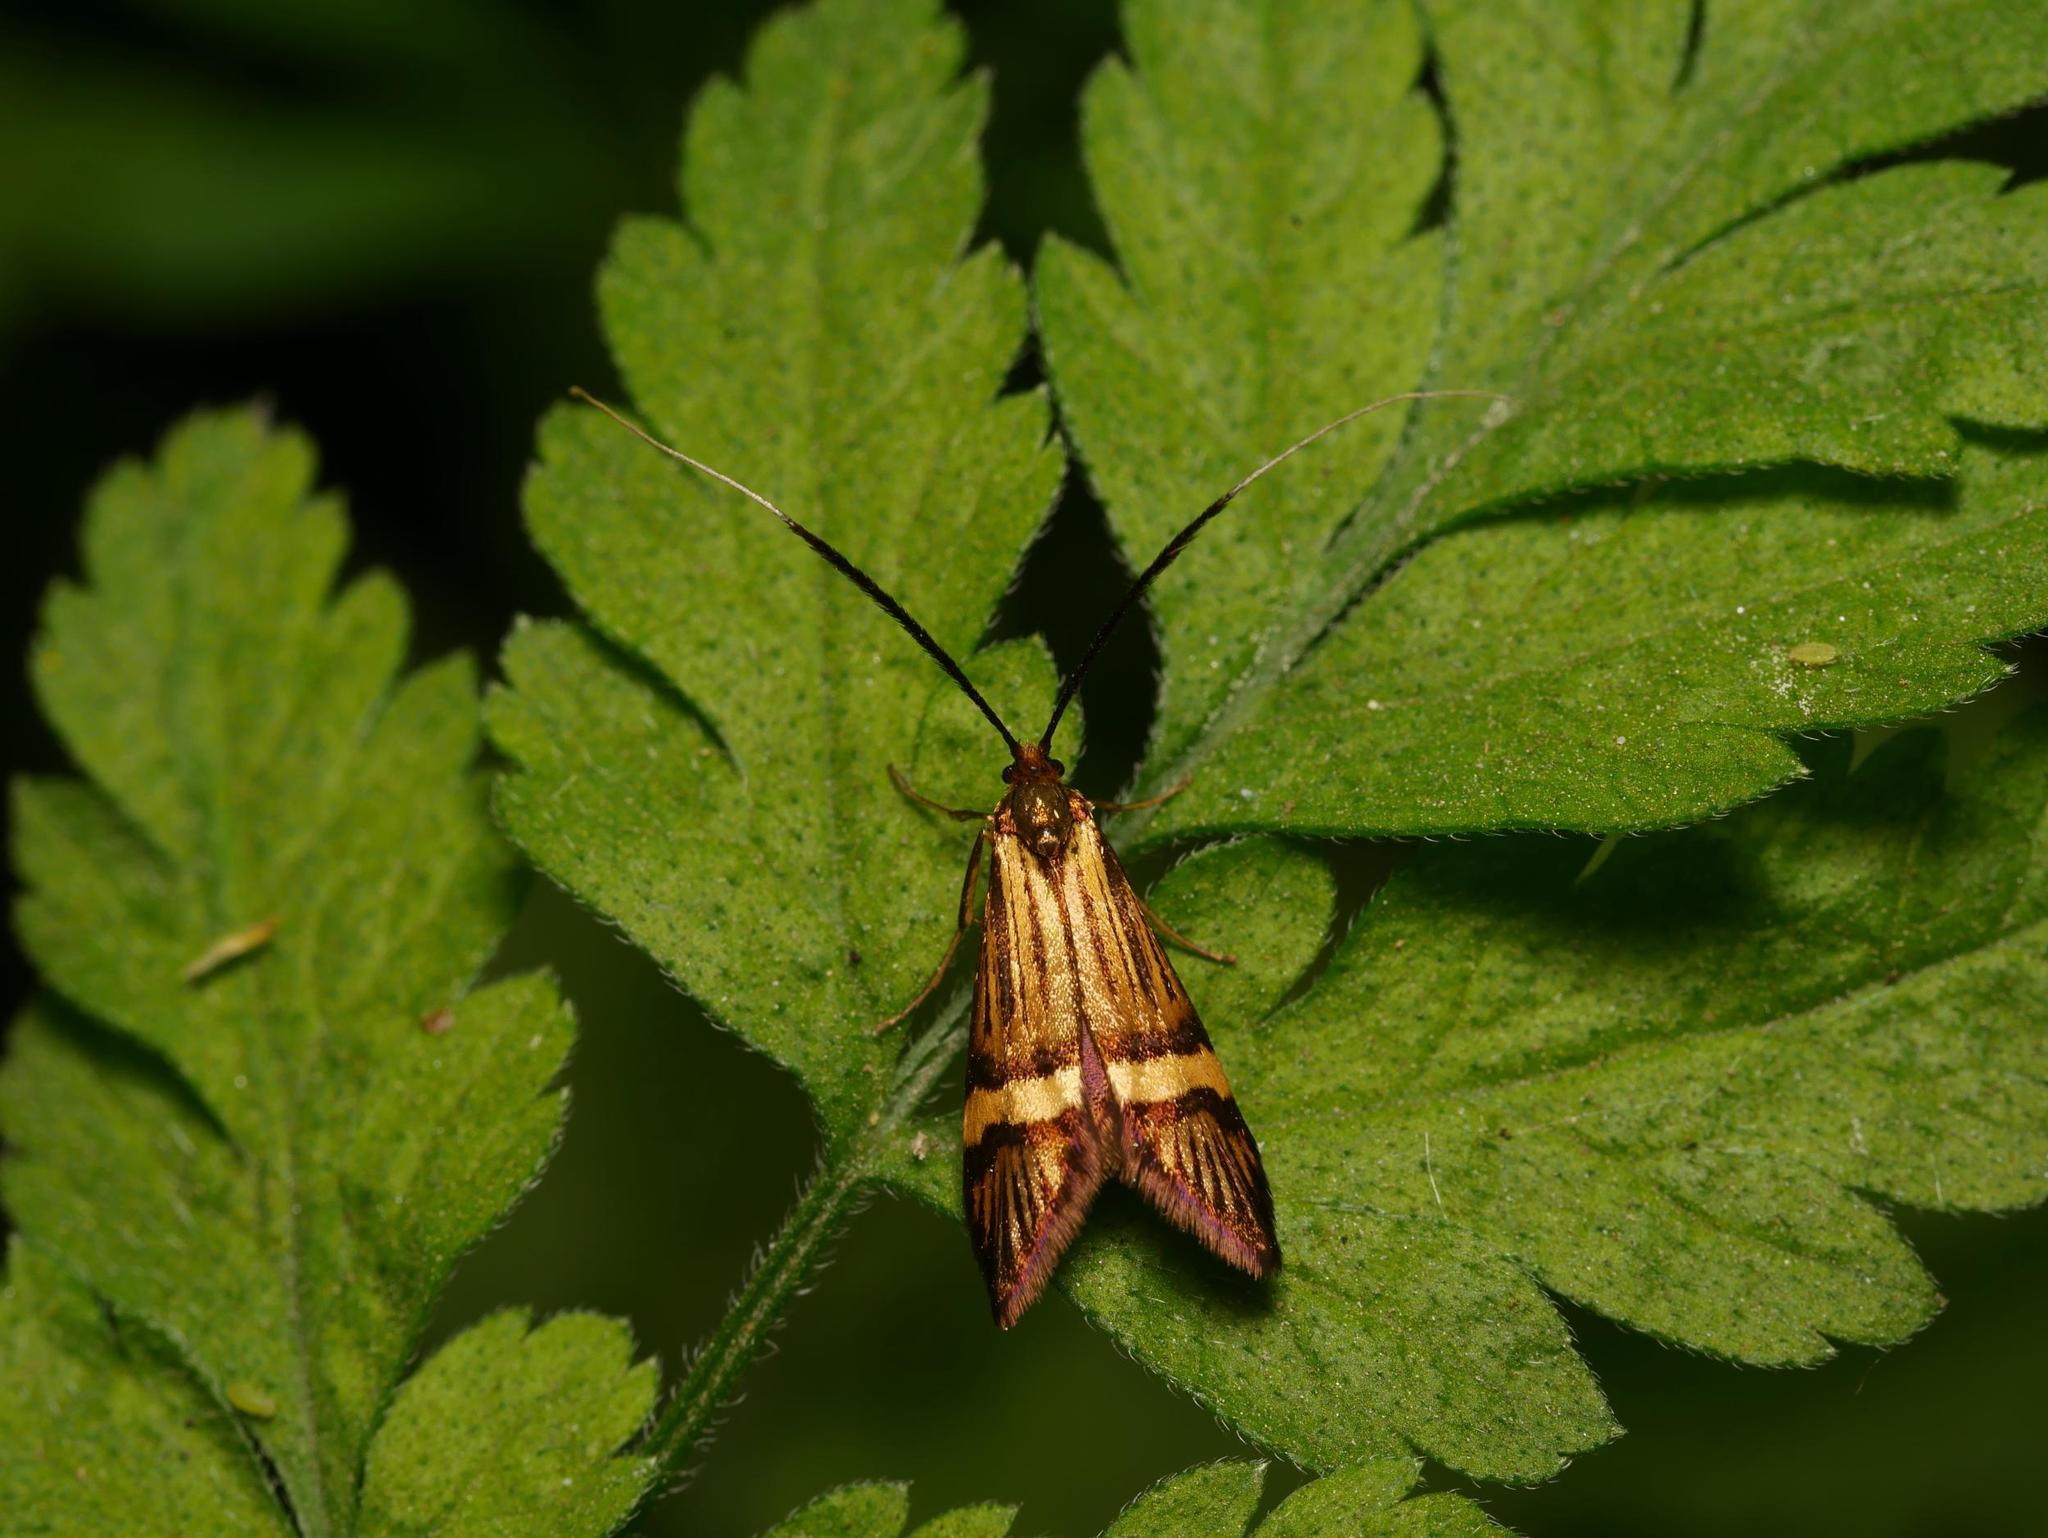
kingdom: Animalia
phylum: Arthropoda
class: Insecta
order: Lepidoptera
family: Adelidae
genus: Nemophora
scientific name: Nemophora degeerella
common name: Yellow-barred long-horn
